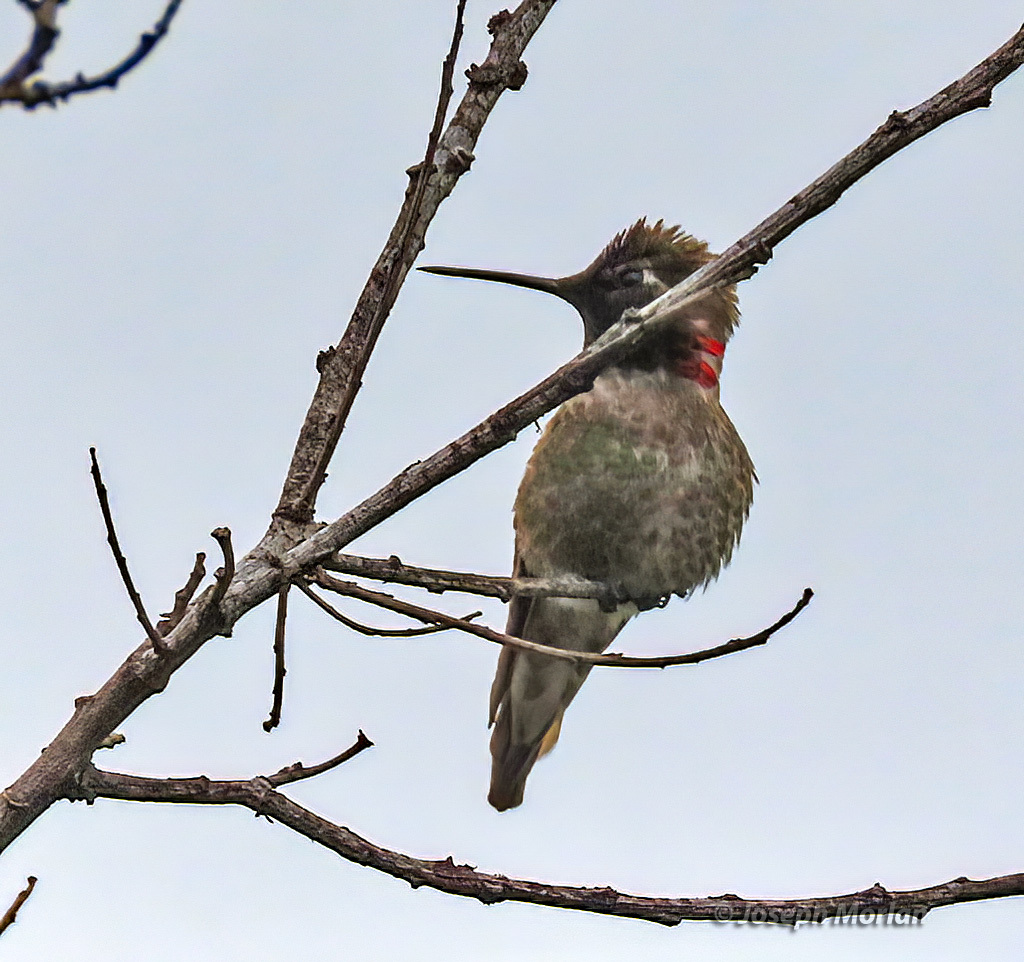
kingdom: Animalia
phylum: Chordata
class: Aves
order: Apodiformes
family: Trochilidae
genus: Calypte
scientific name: Calypte anna
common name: Anna's hummingbird
